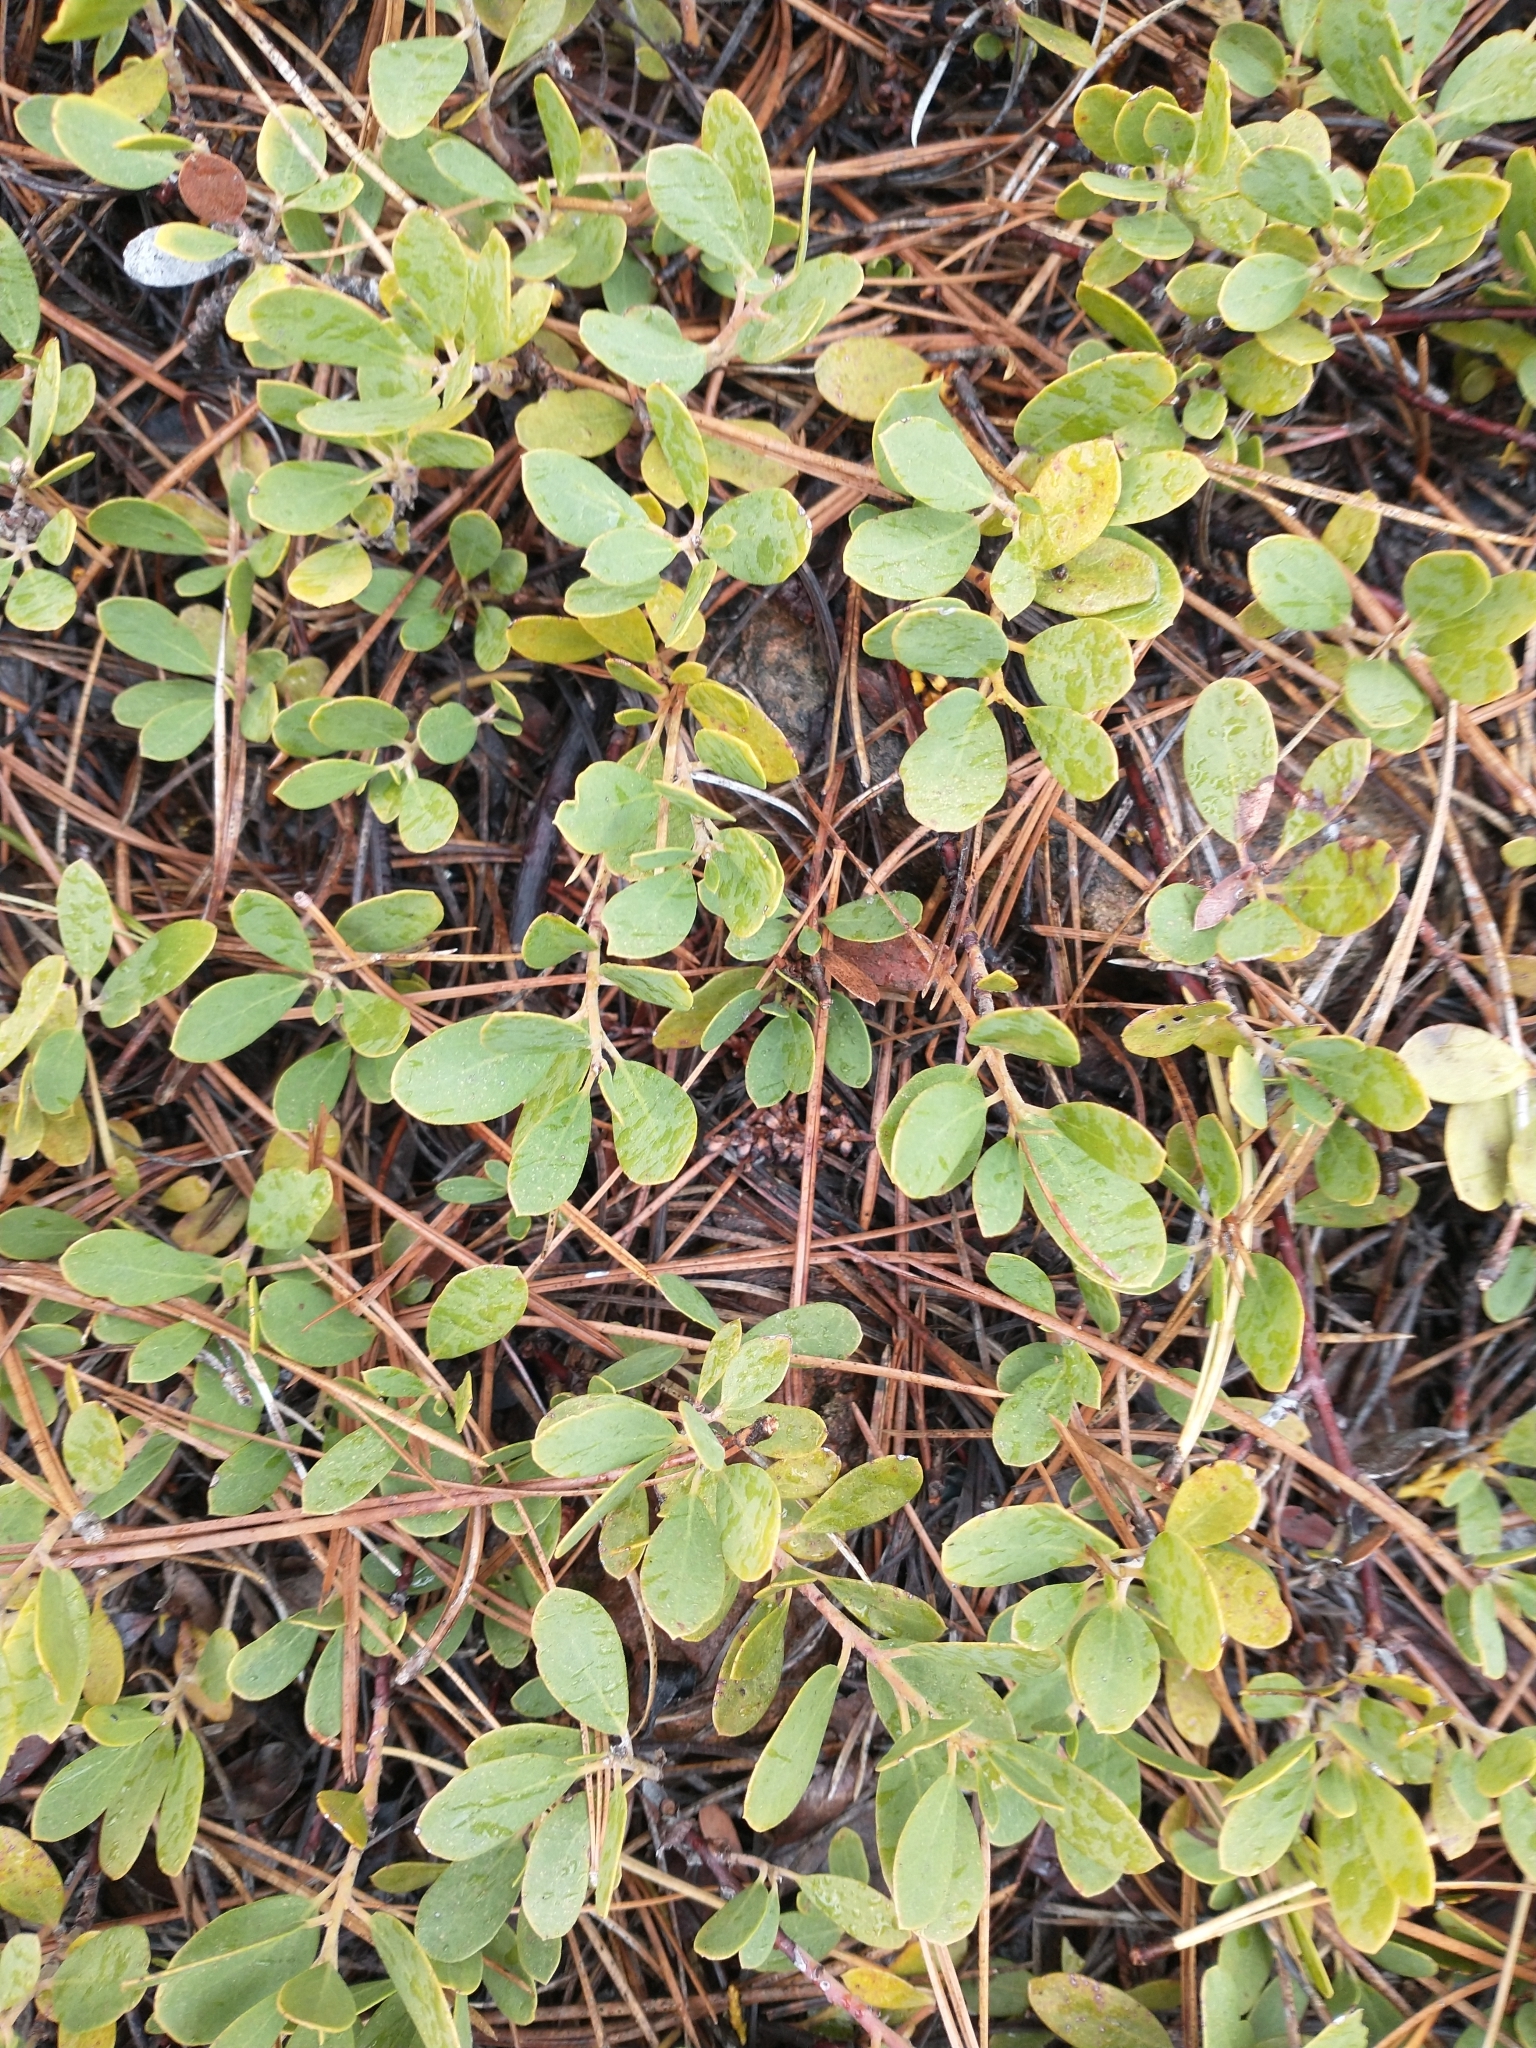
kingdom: Plantae
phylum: Tracheophyta
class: Magnoliopsida
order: Ericales
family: Ericaceae
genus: Arctostaphylos
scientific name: Arctostaphylos nevadensis
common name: Pinemat manzanita
